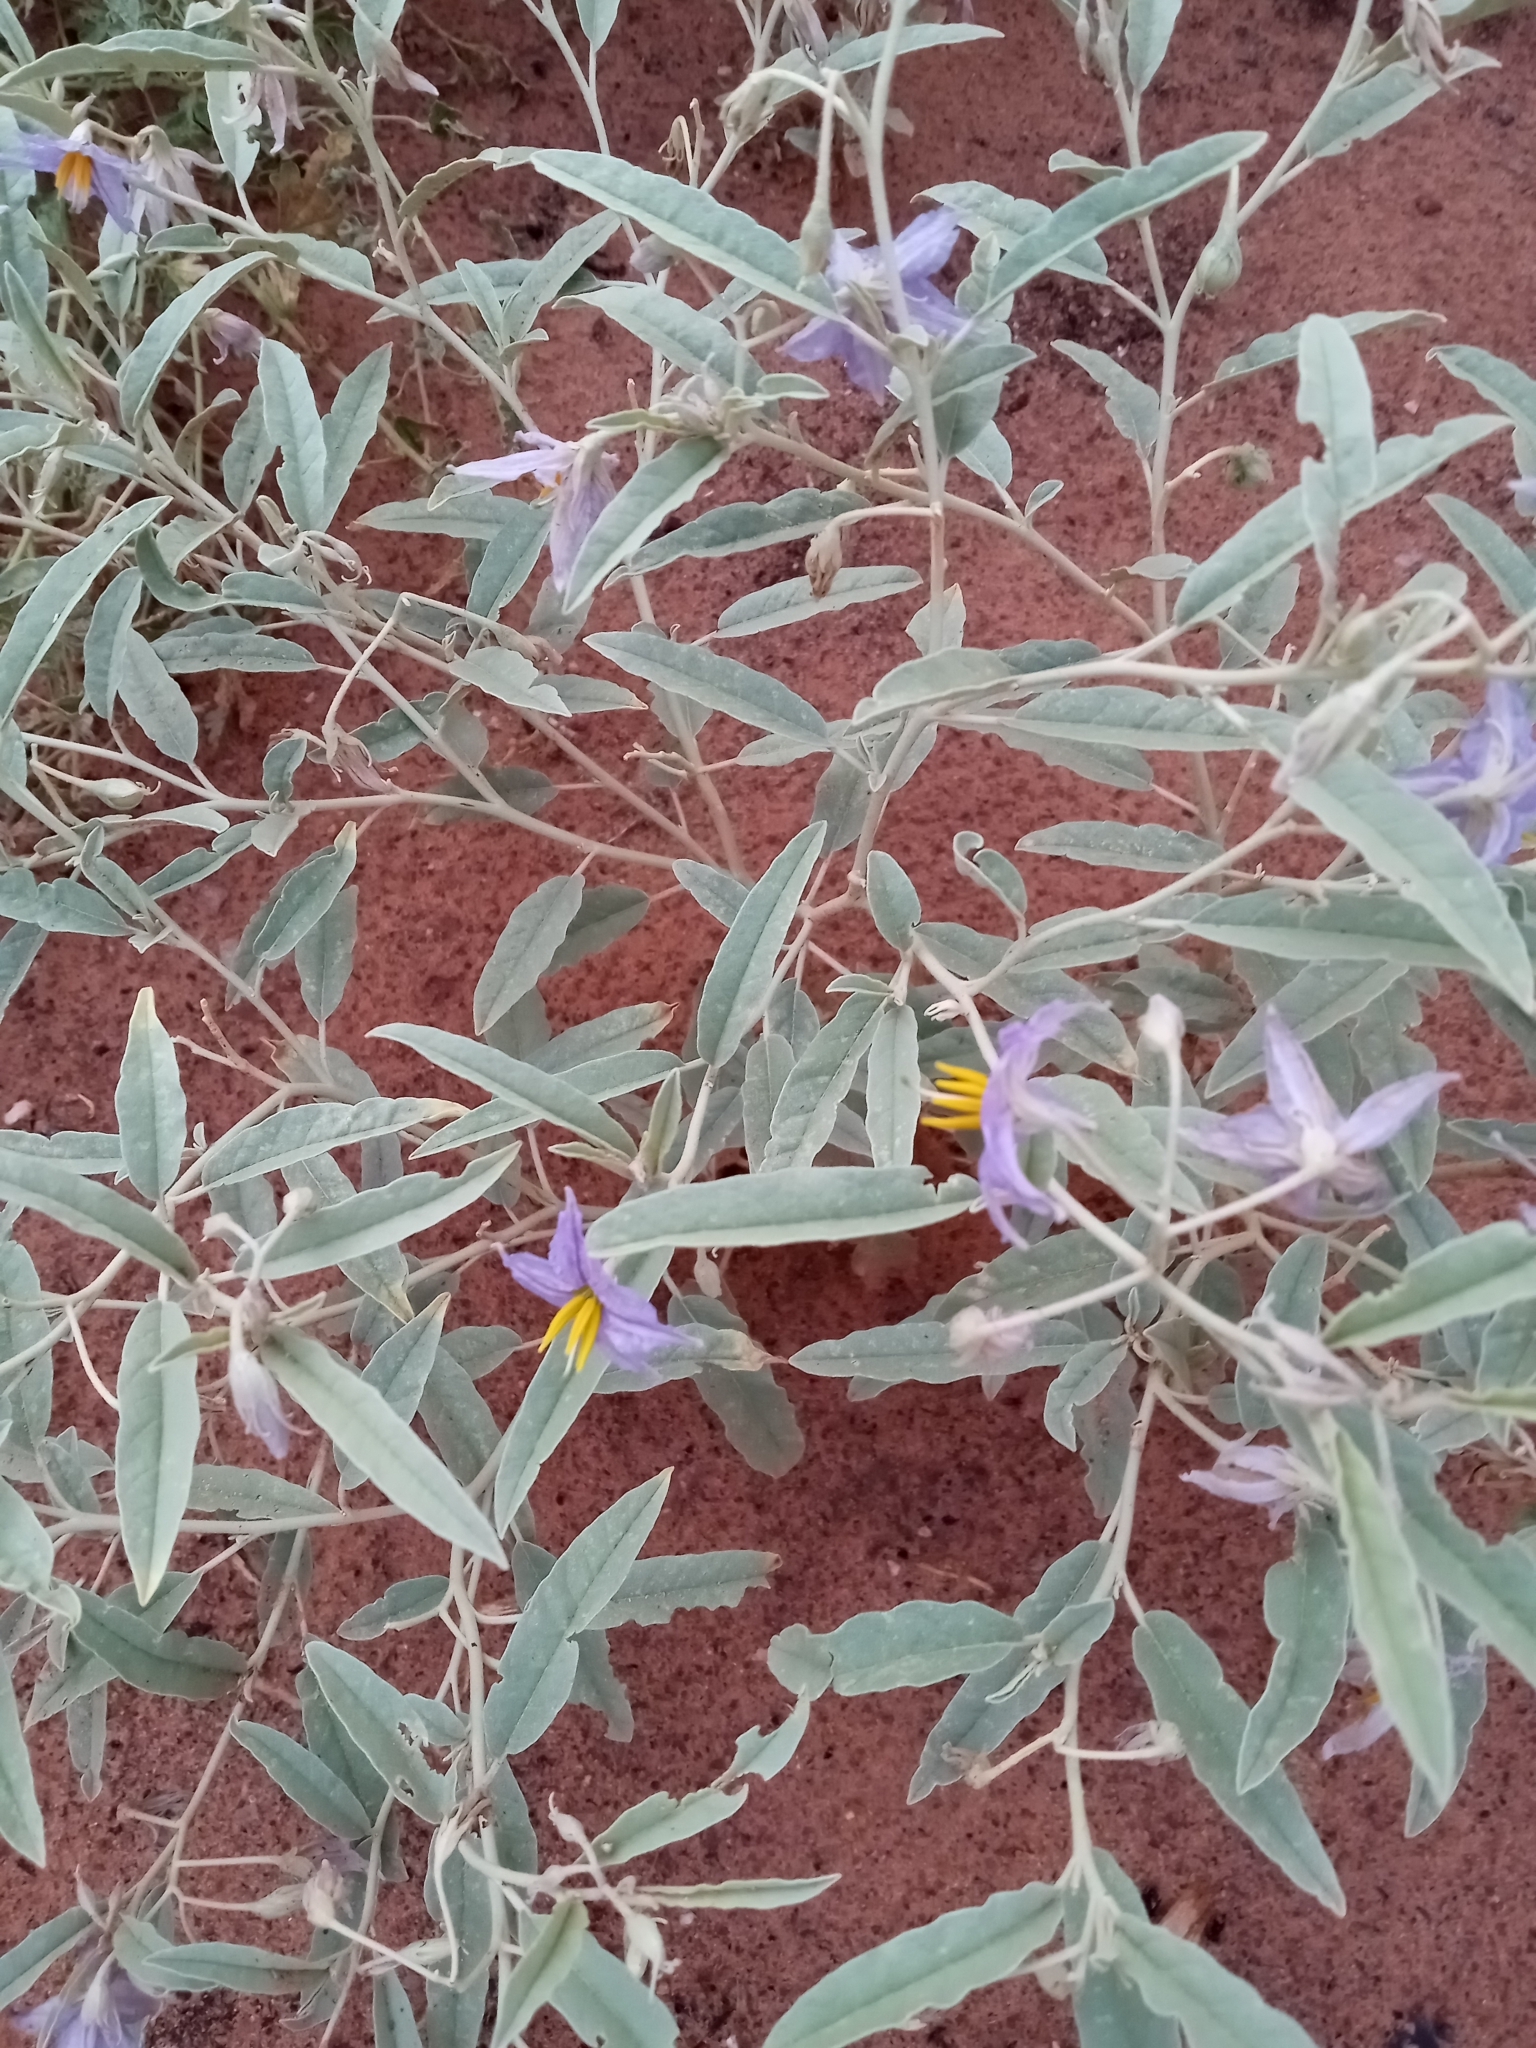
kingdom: Plantae
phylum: Tracheophyta
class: Magnoliopsida
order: Solanales
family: Solanaceae
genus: Solanum
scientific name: Solanum elaeagnifolium
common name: Silverleaf nightshade
